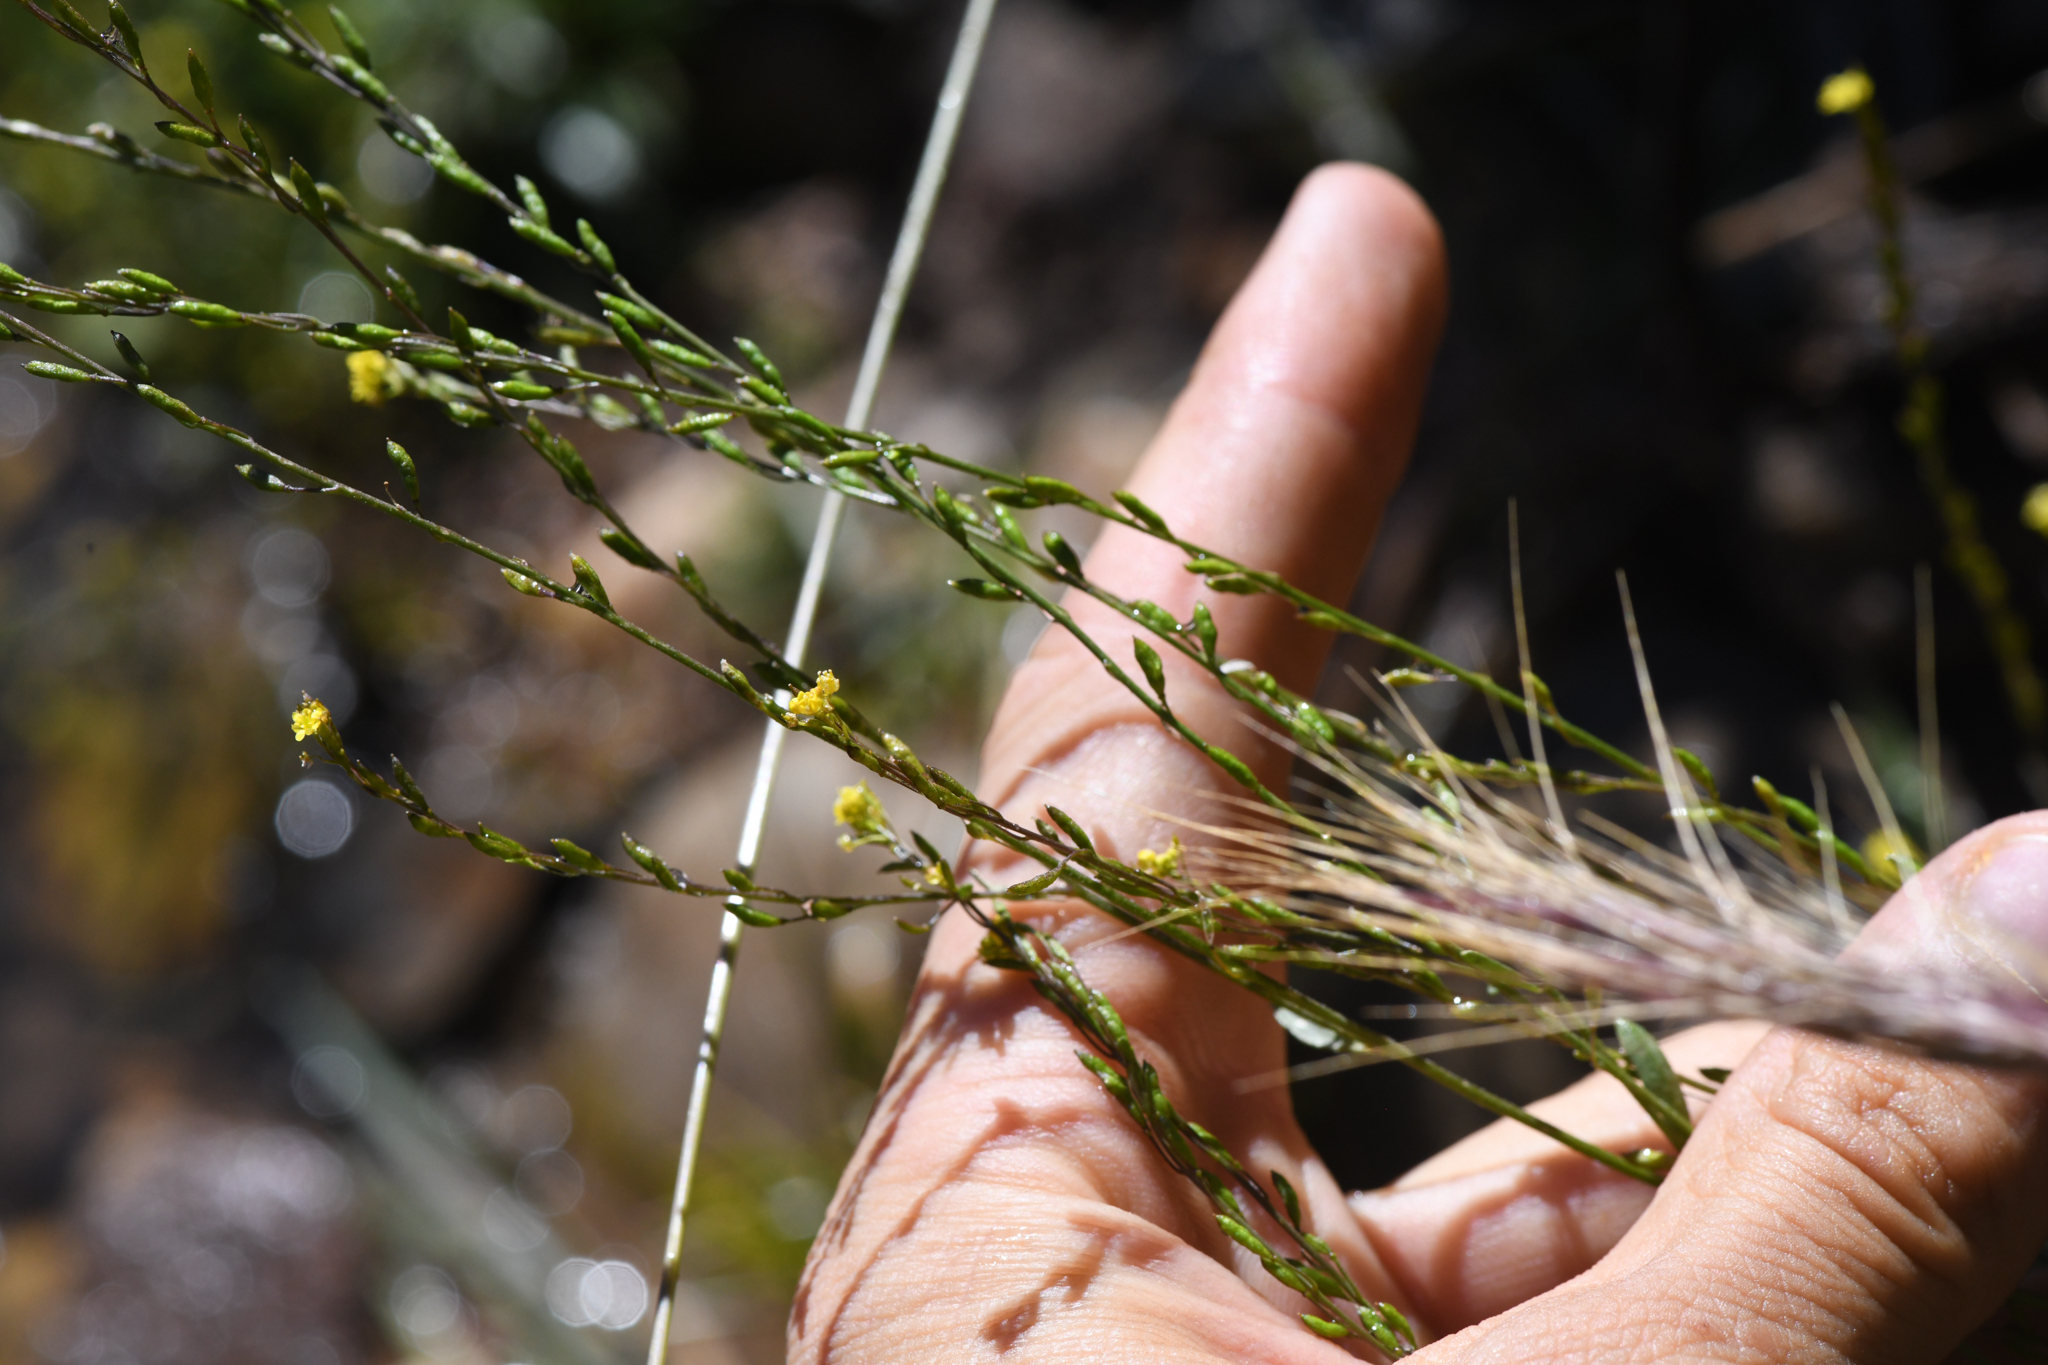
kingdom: Plantae
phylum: Tracheophyta
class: Magnoliopsida
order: Brassicales
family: Brassicaceae
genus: Descurainia
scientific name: Descurainia californica
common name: California tansy mustard
